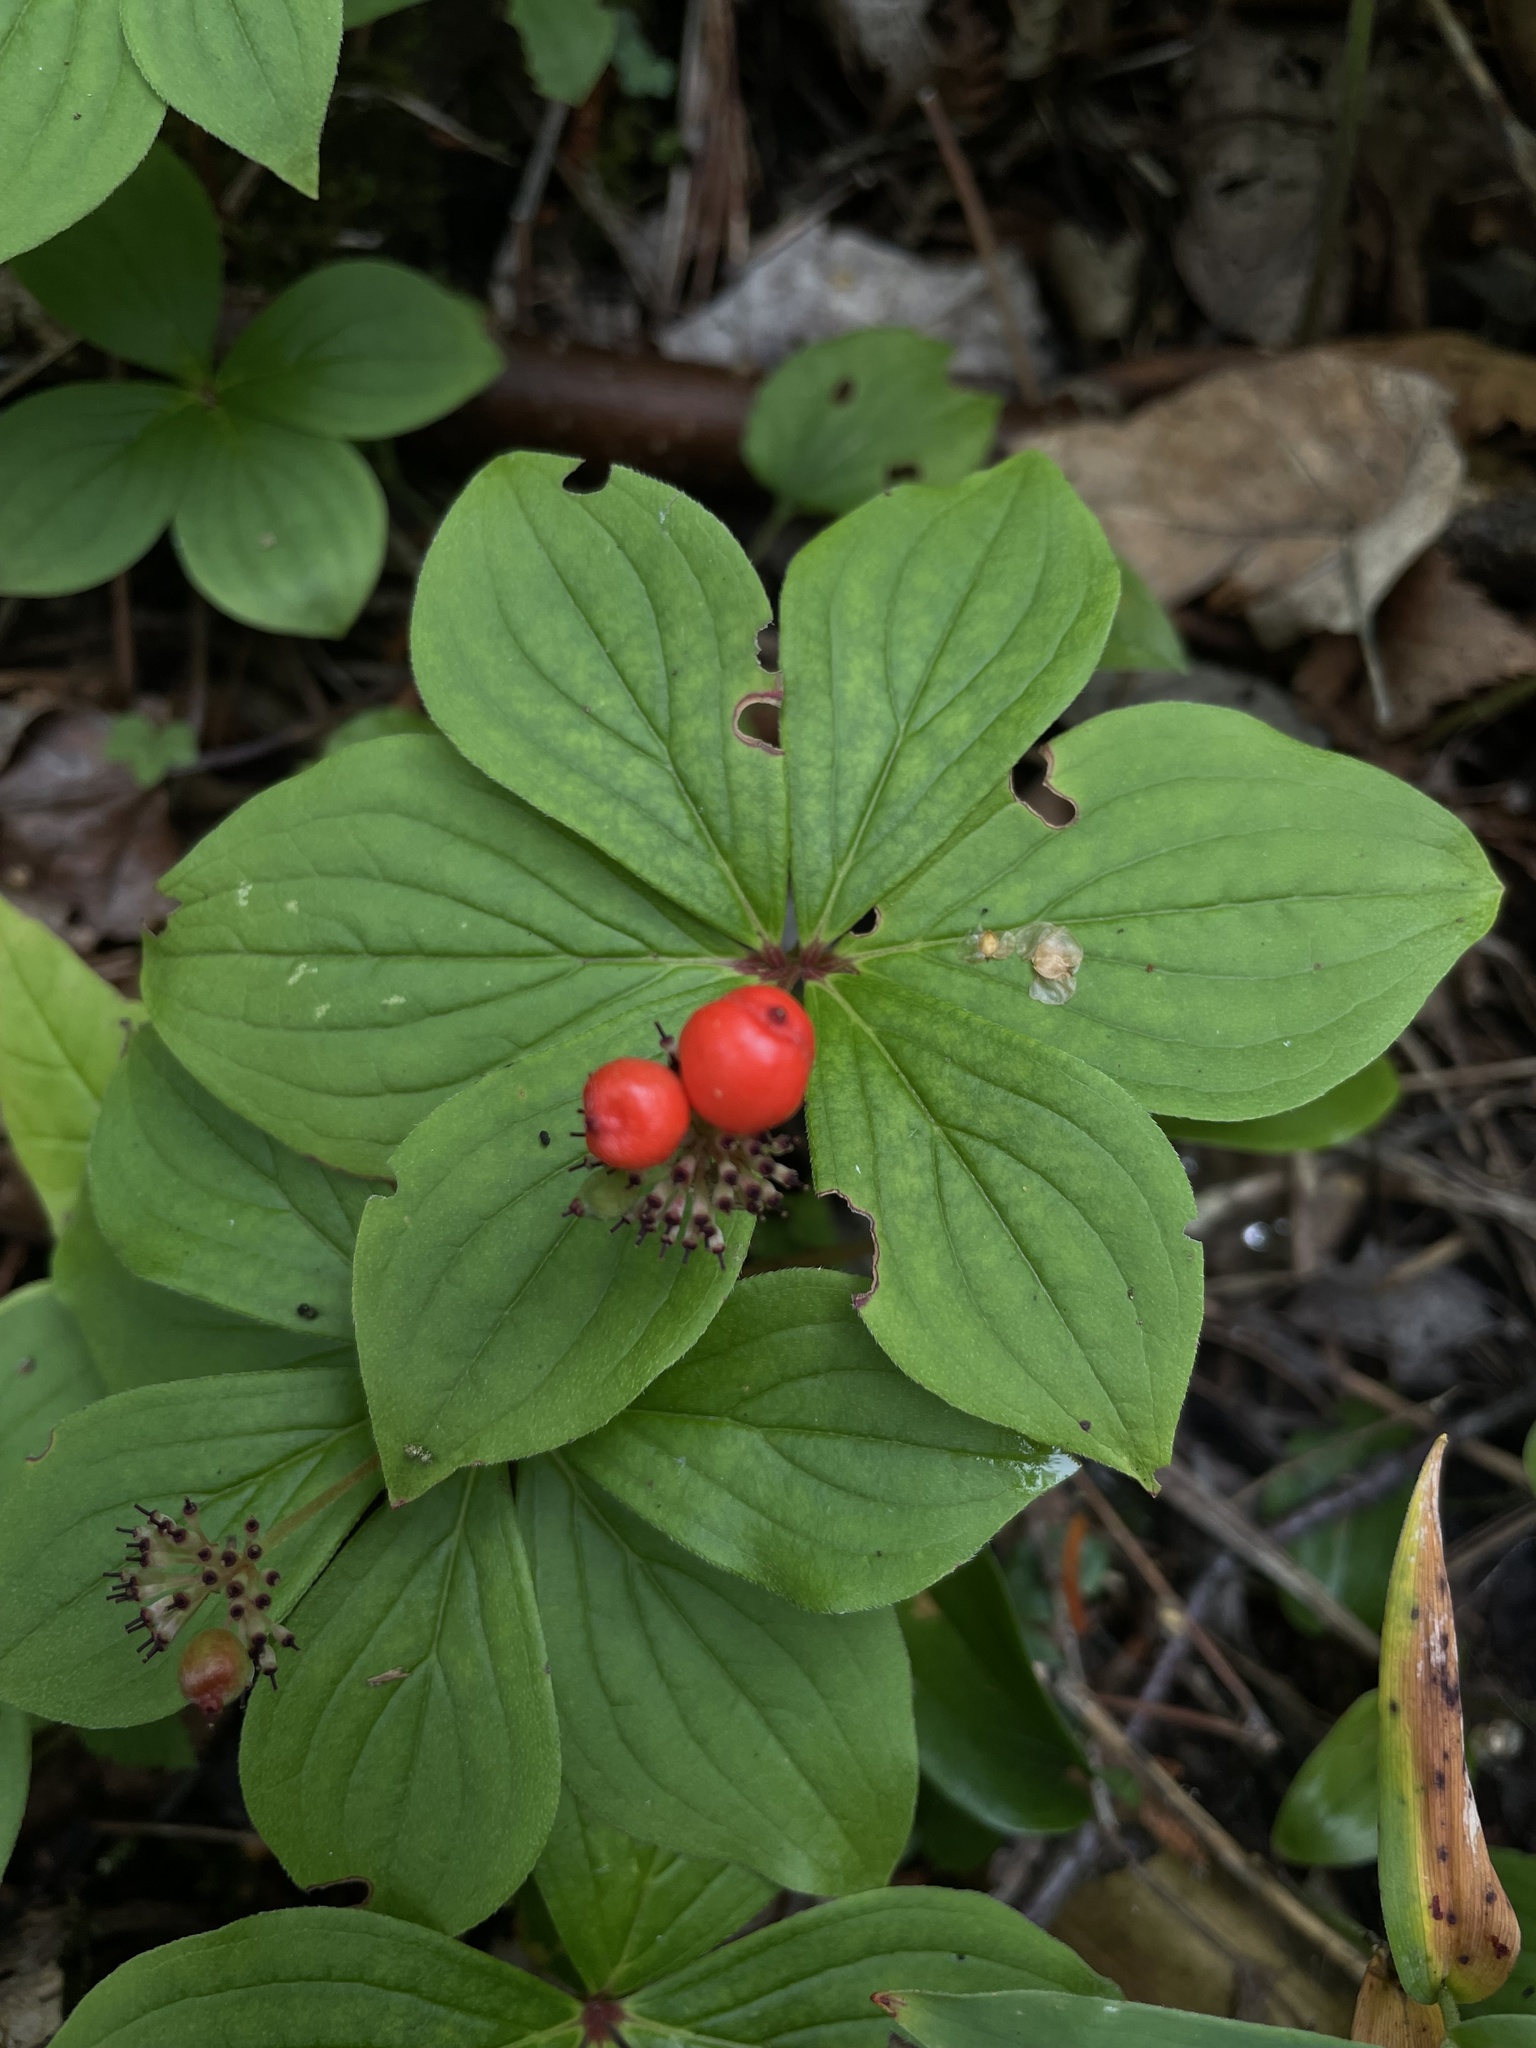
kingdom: Plantae
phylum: Tracheophyta
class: Magnoliopsida
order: Cornales
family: Cornaceae
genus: Cornus
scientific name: Cornus canadensis
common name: Creeping dogwood
